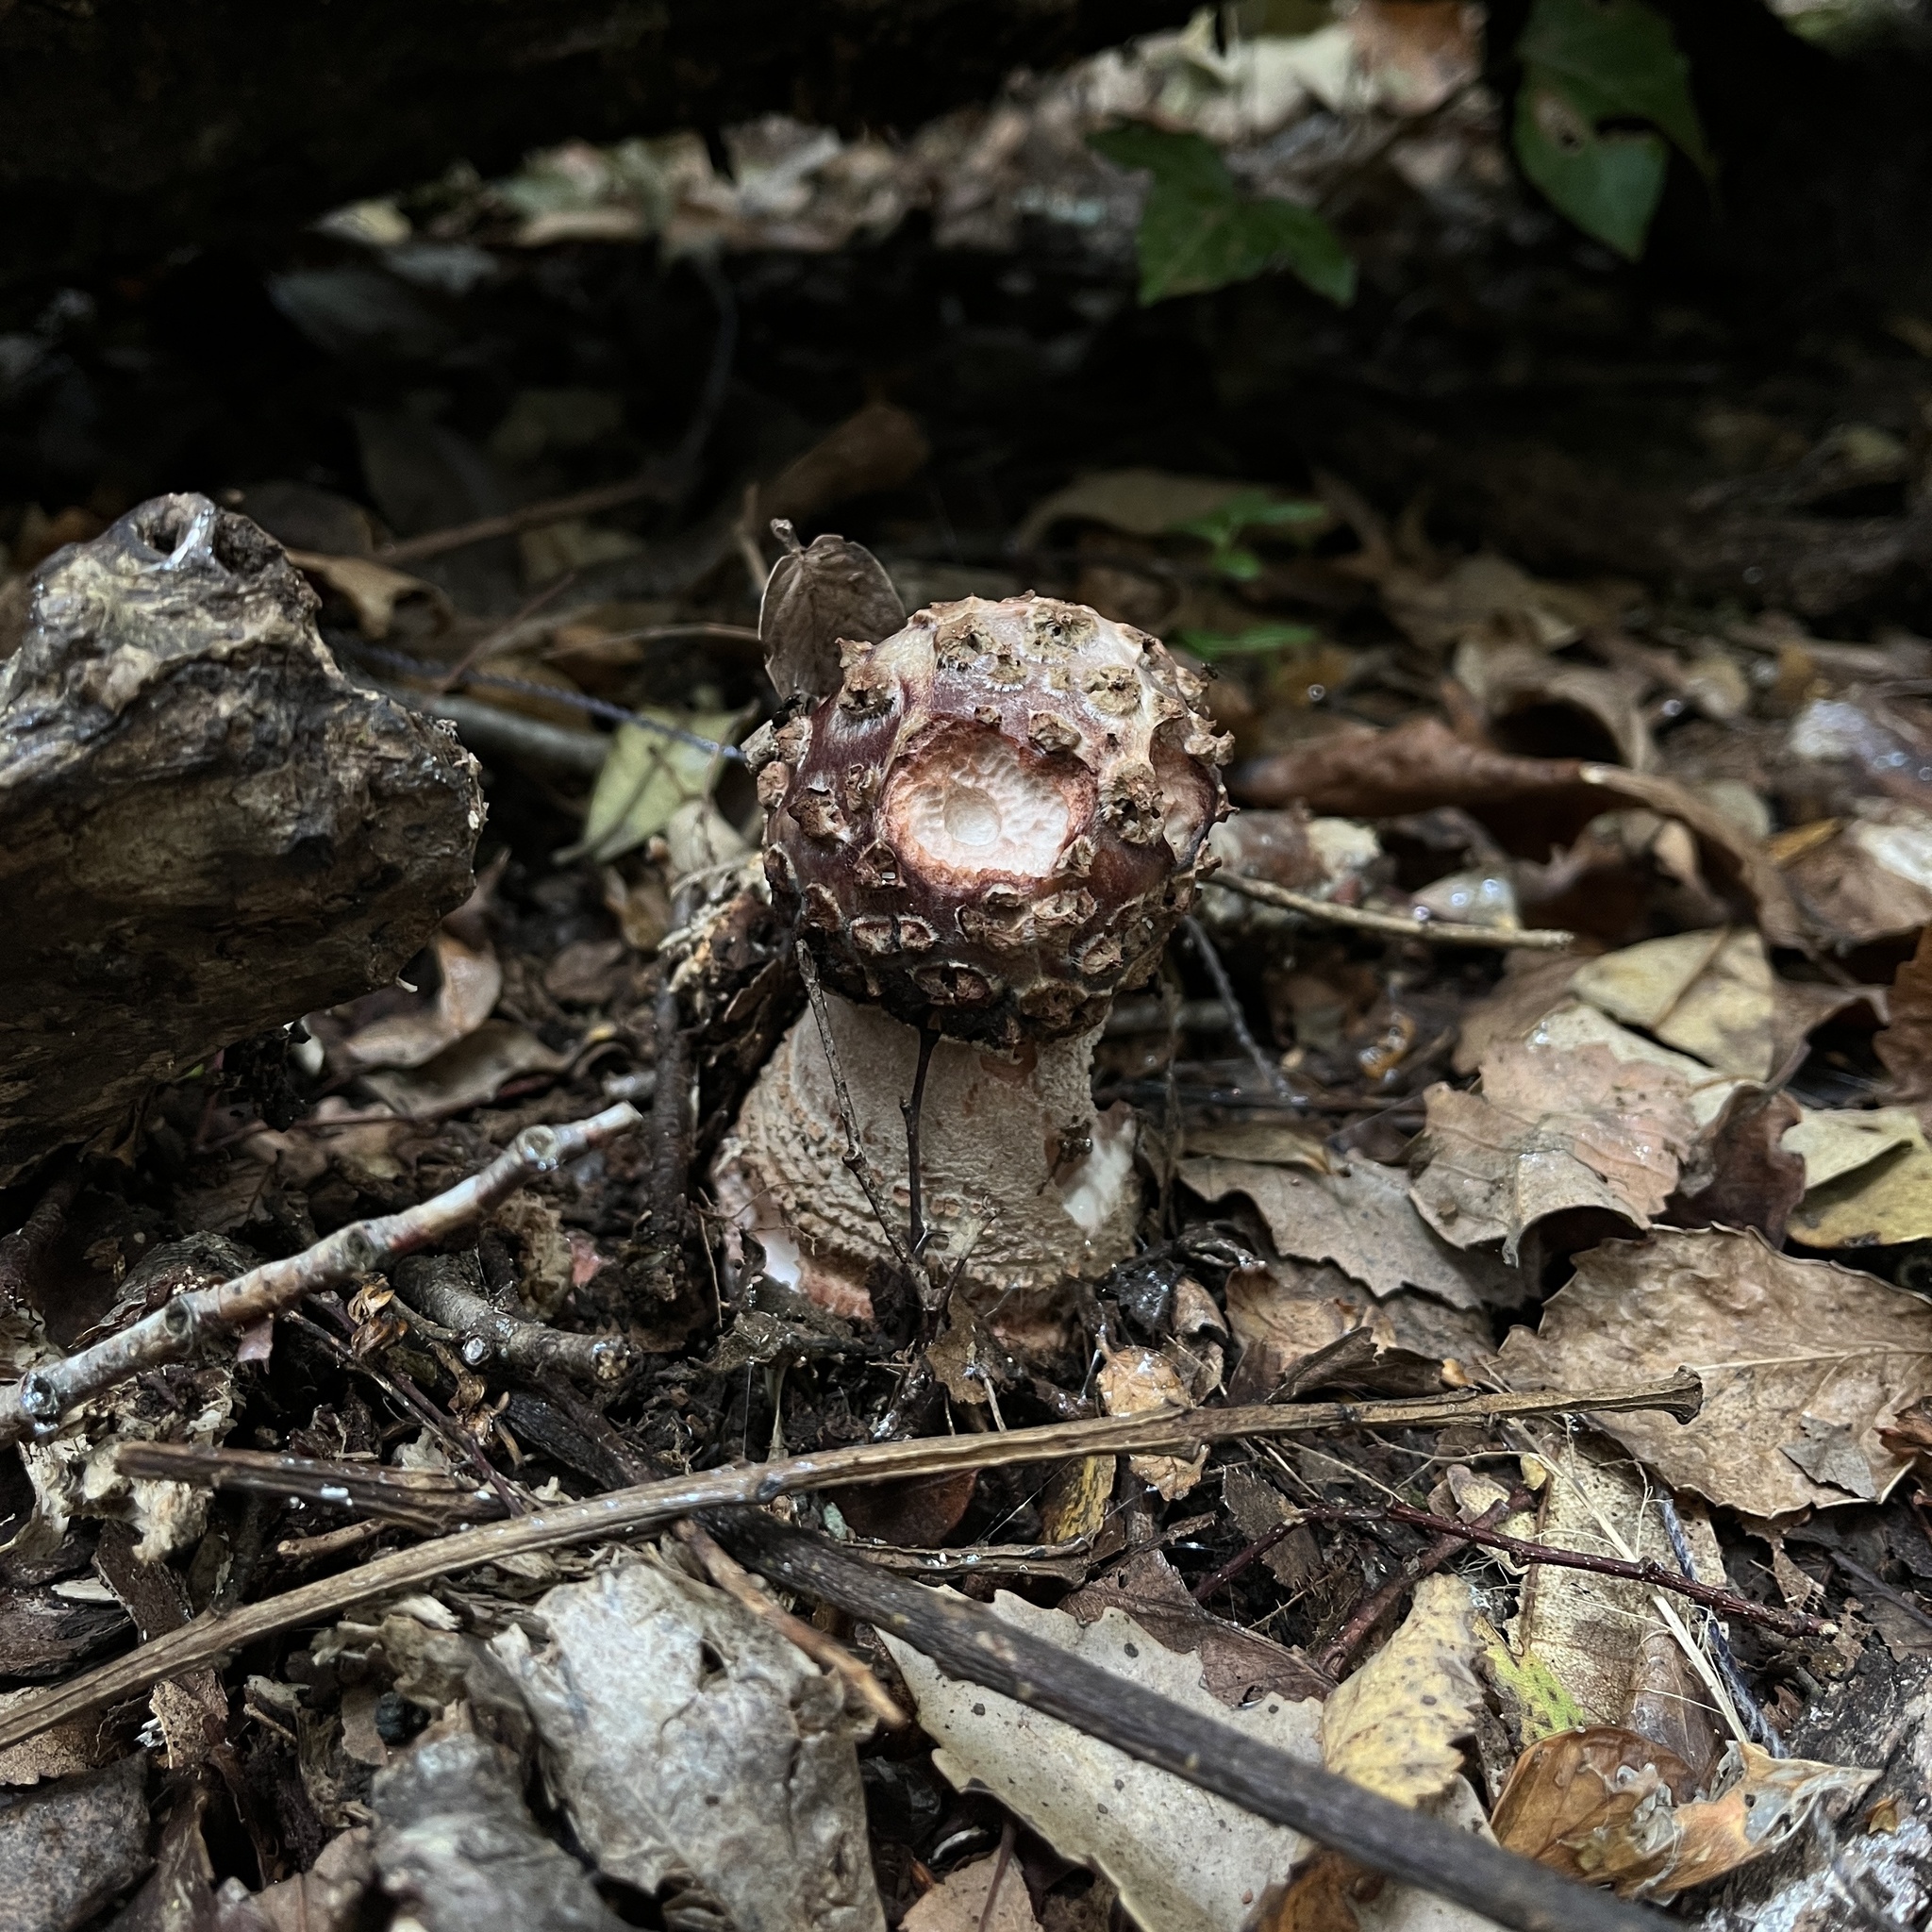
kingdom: Fungi
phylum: Basidiomycota
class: Agaricomycetes
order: Agaricales
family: Amanitaceae
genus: Amanita
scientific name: Amanita rubescens
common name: Blusher
